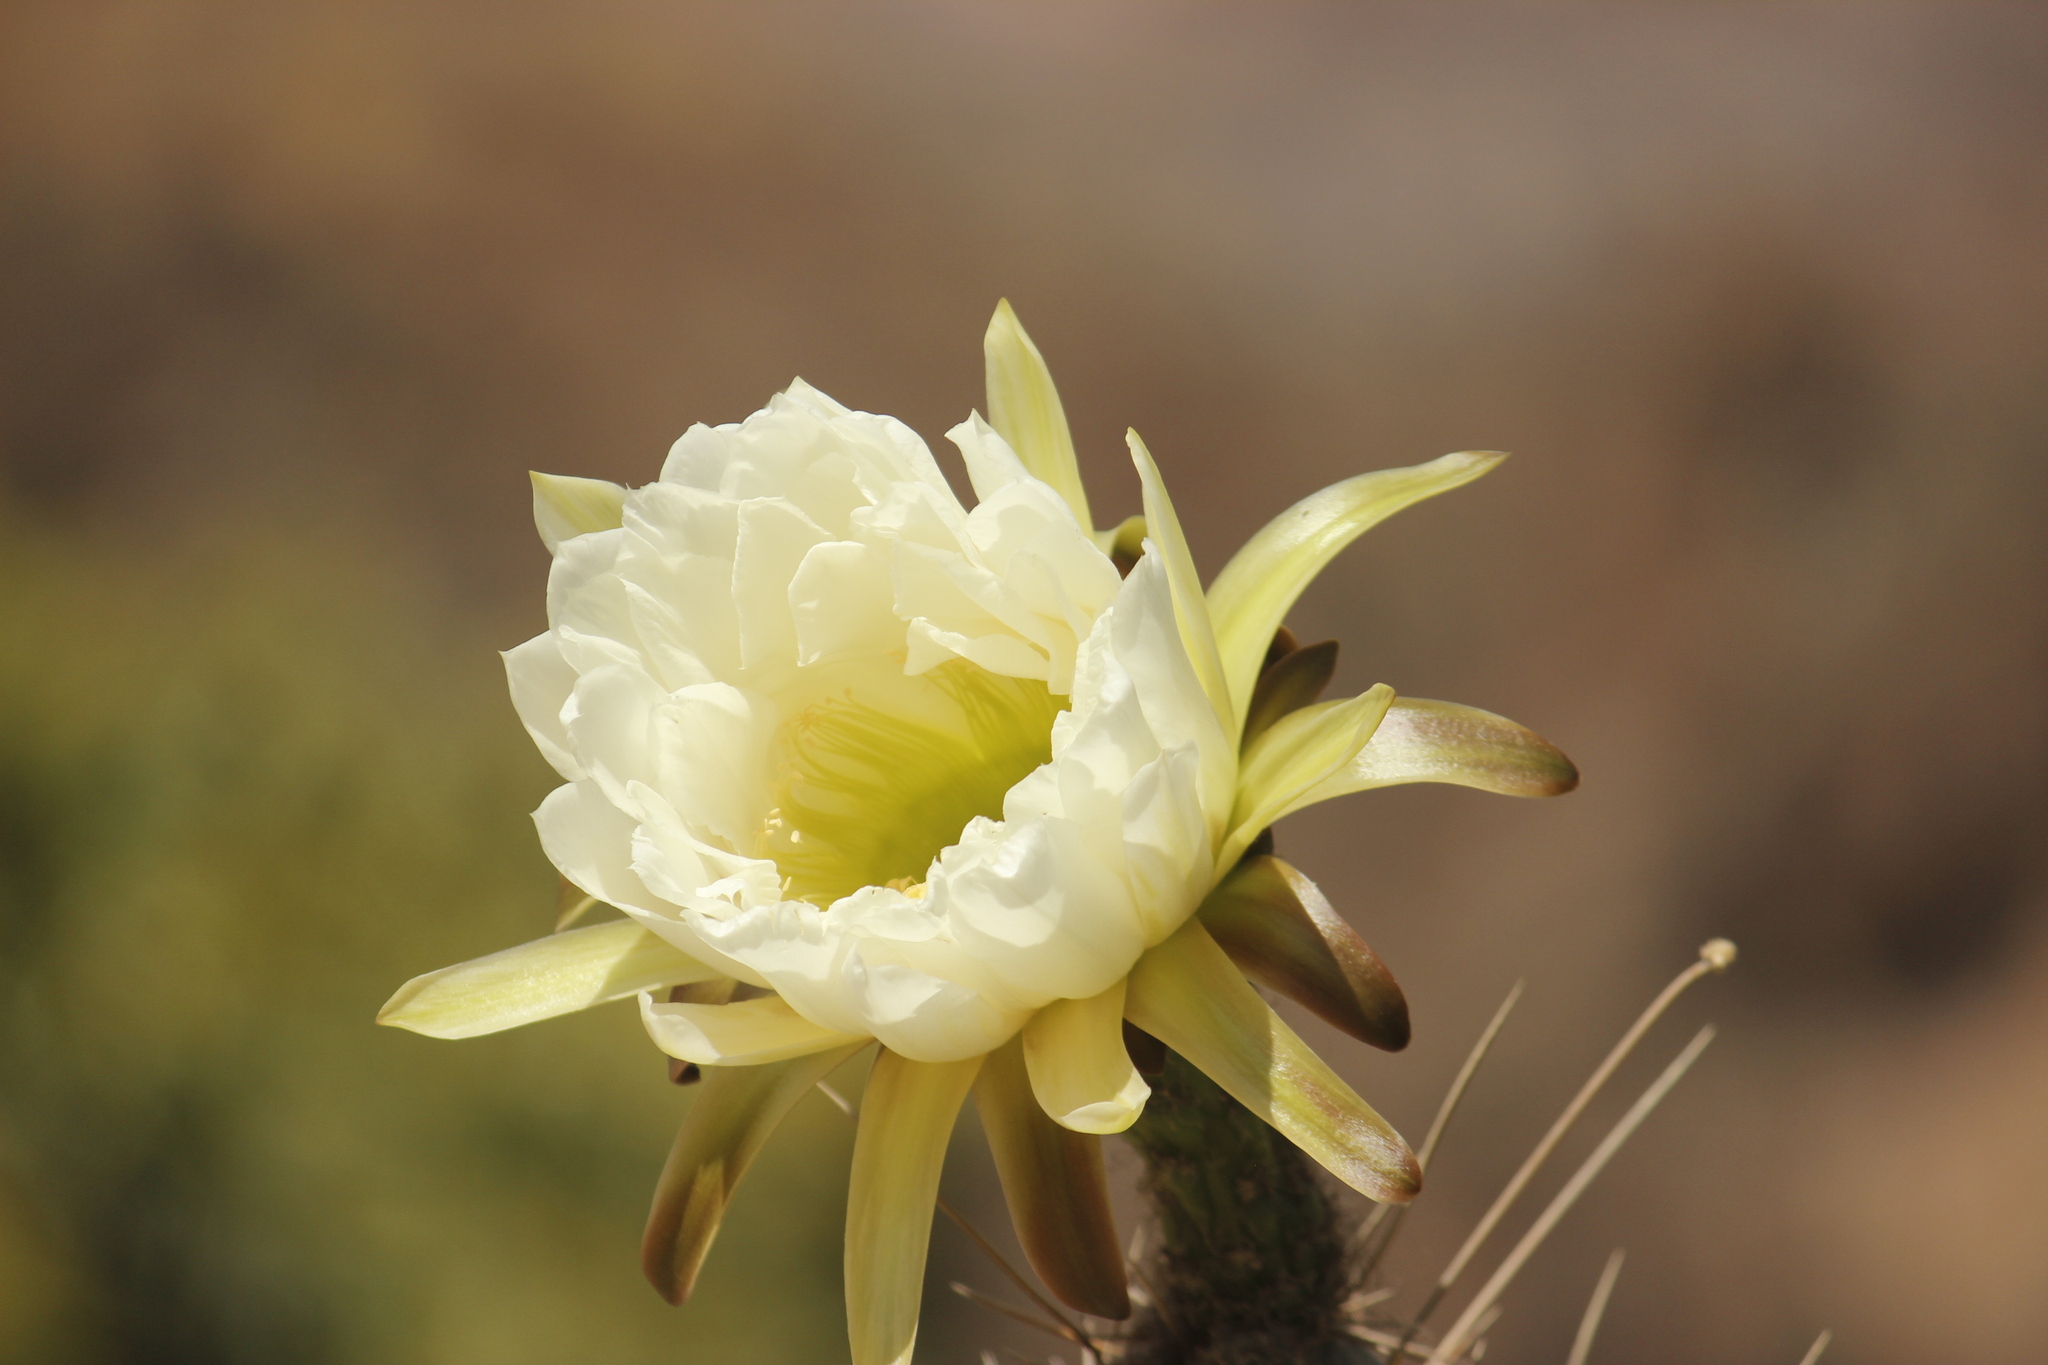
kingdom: Plantae
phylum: Tracheophyta
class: Magnoliopsida
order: Caryophyllales
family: Cactaceae
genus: Trichocereus
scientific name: Trichocereus macrogonus
